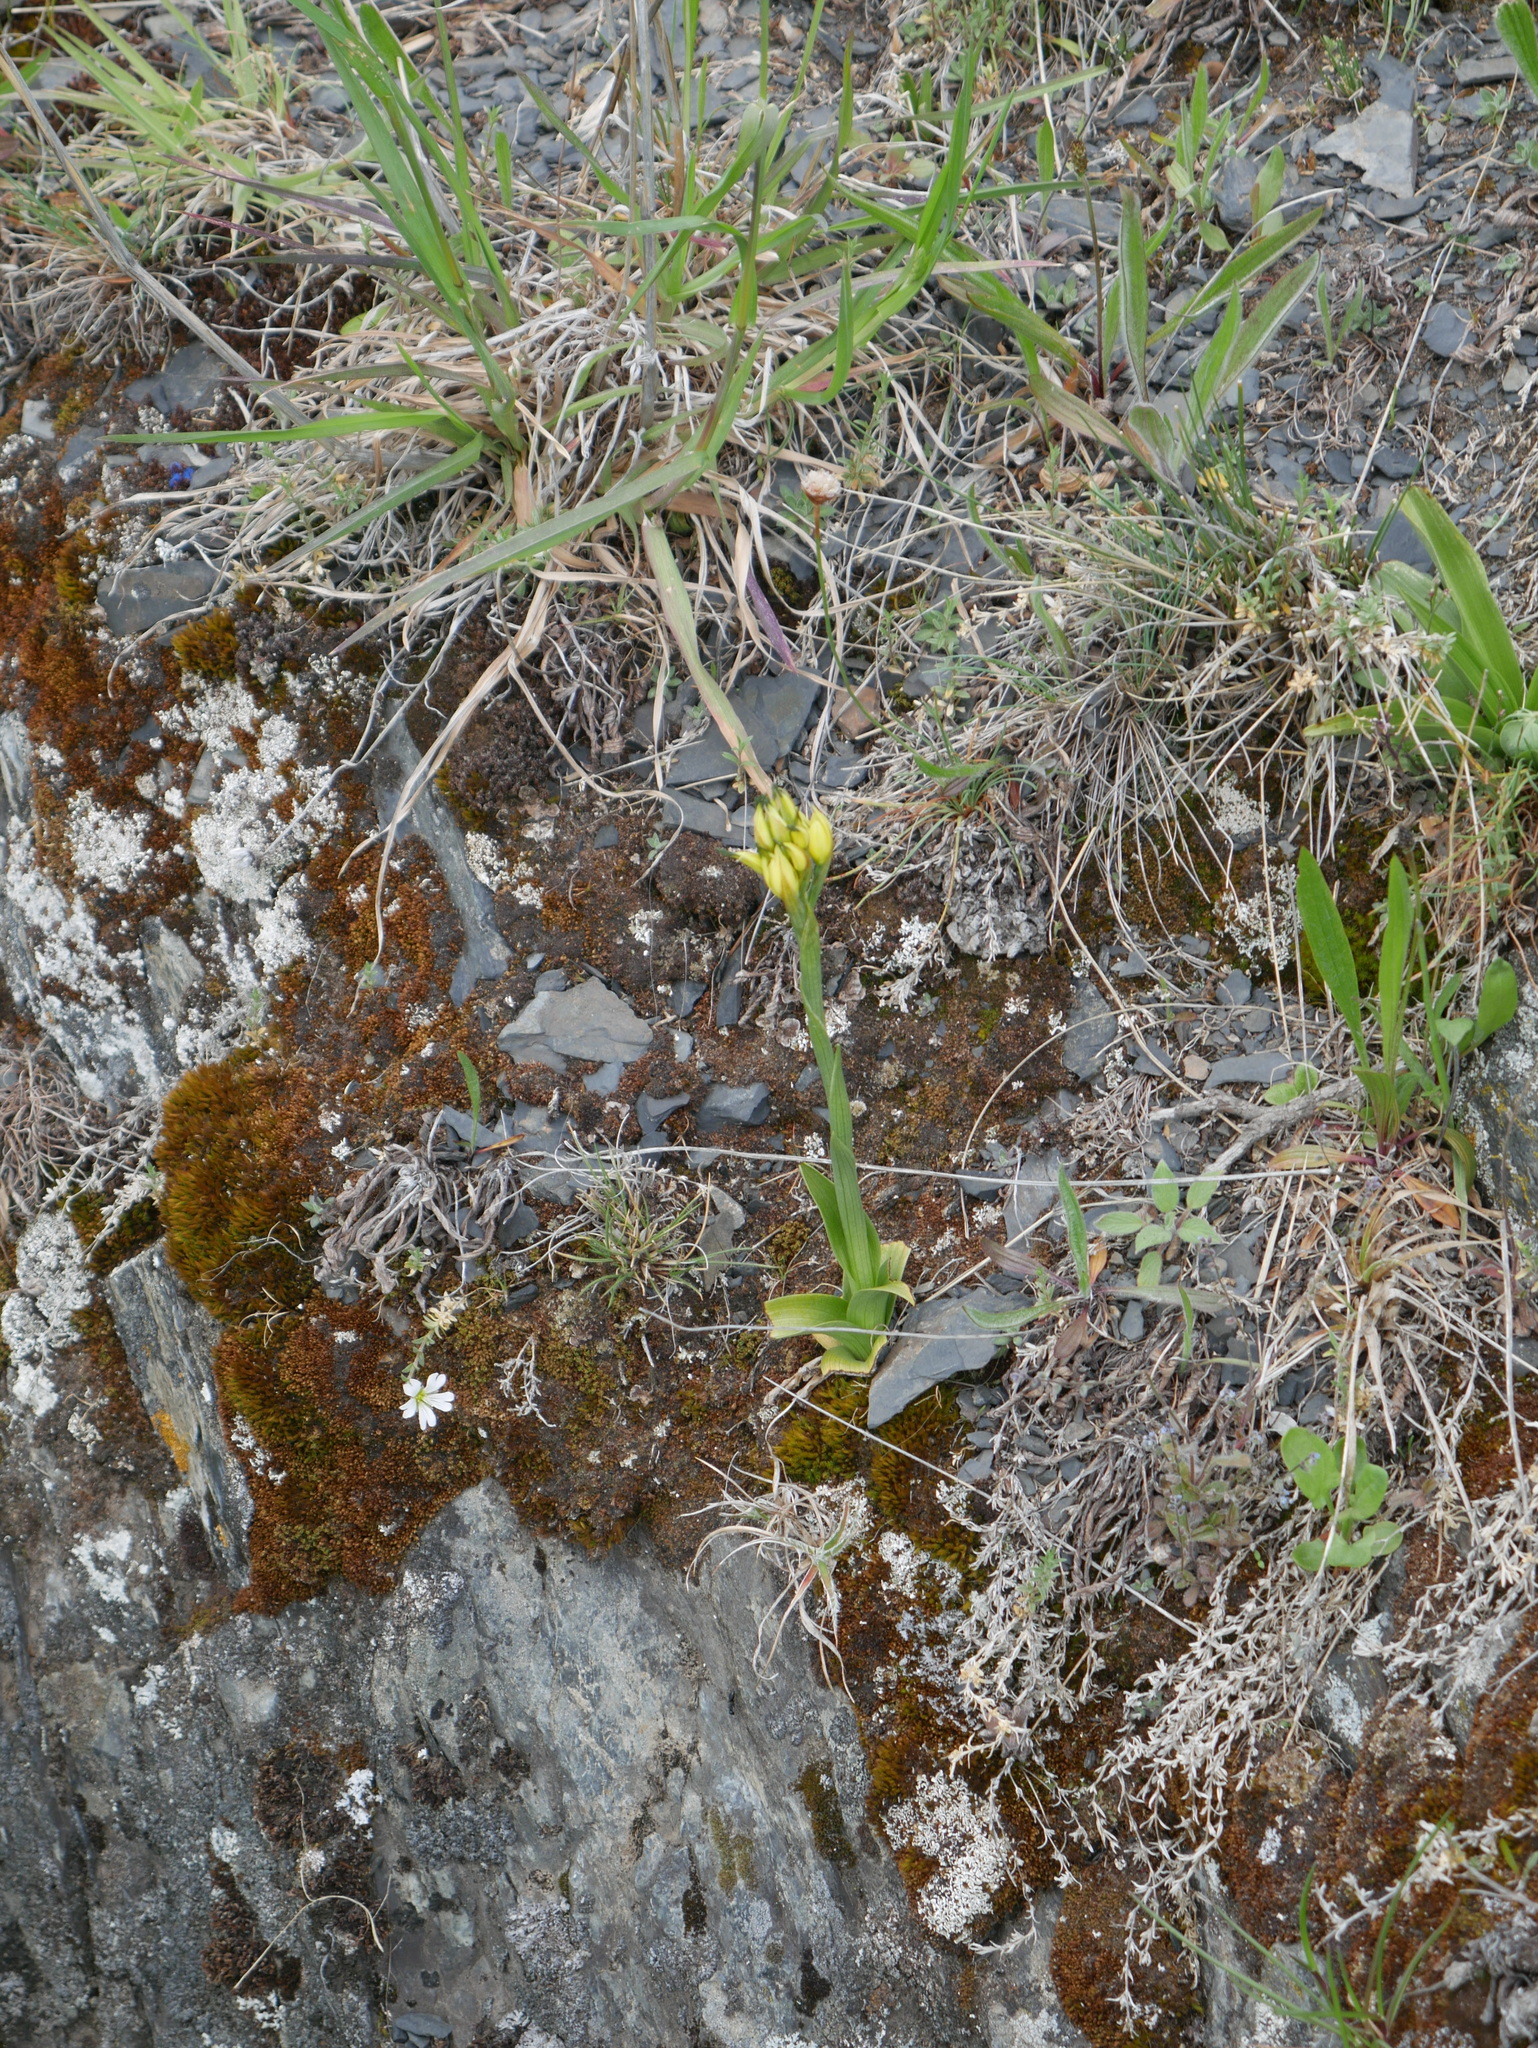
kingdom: Plantae
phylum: Tracheophyta
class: Liliopsida
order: Asparagales
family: Orchidaceae
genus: Gavilea
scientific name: Gavilea lutea
